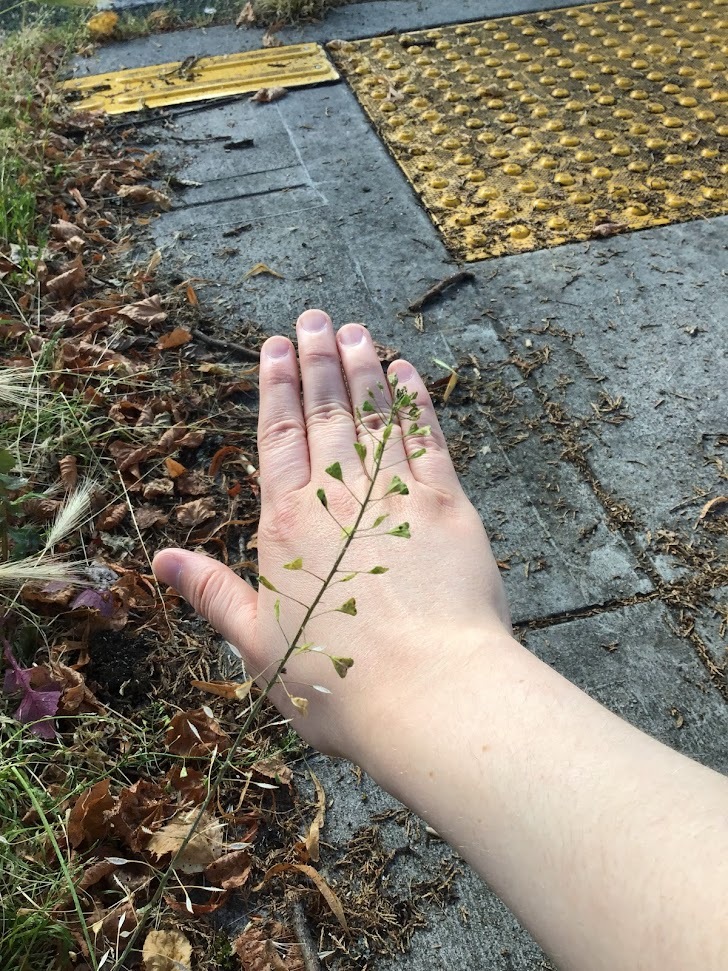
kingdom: Plantae
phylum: Tracheophyta
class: Magnoliopsida
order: Brassicales
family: Brassicaceae
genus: Capsella
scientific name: Capsella bursa-pastoris
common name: Shepherd's purse
